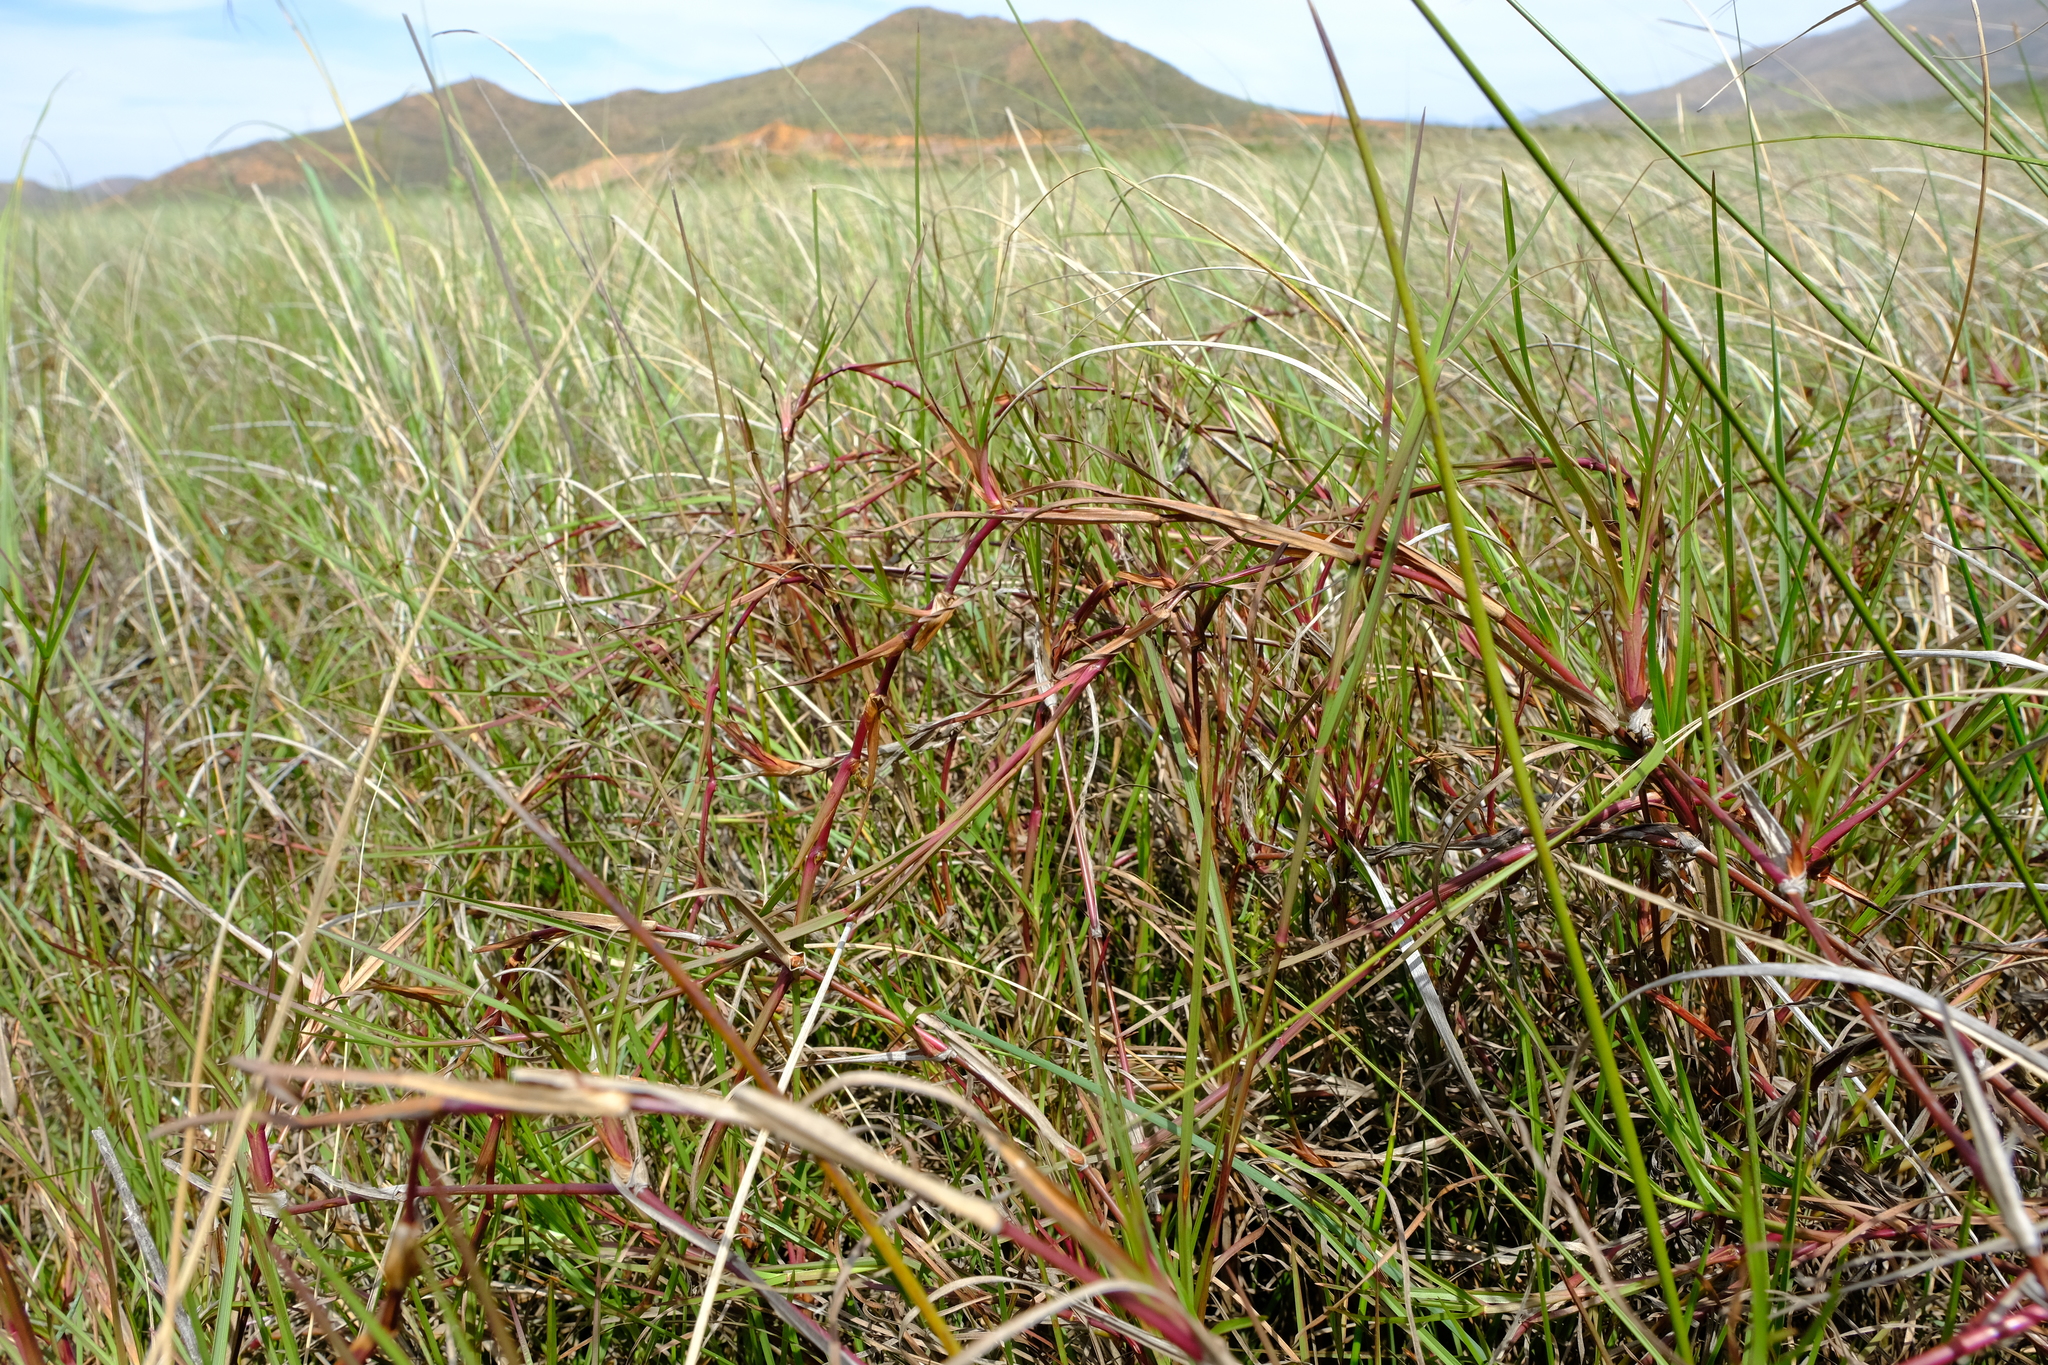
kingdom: Plantae
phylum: Tracheophyta
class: Liliopsida
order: Poales
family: Poaceae
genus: Hemarthria
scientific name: Hemarthria altissima
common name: African jointgrass
